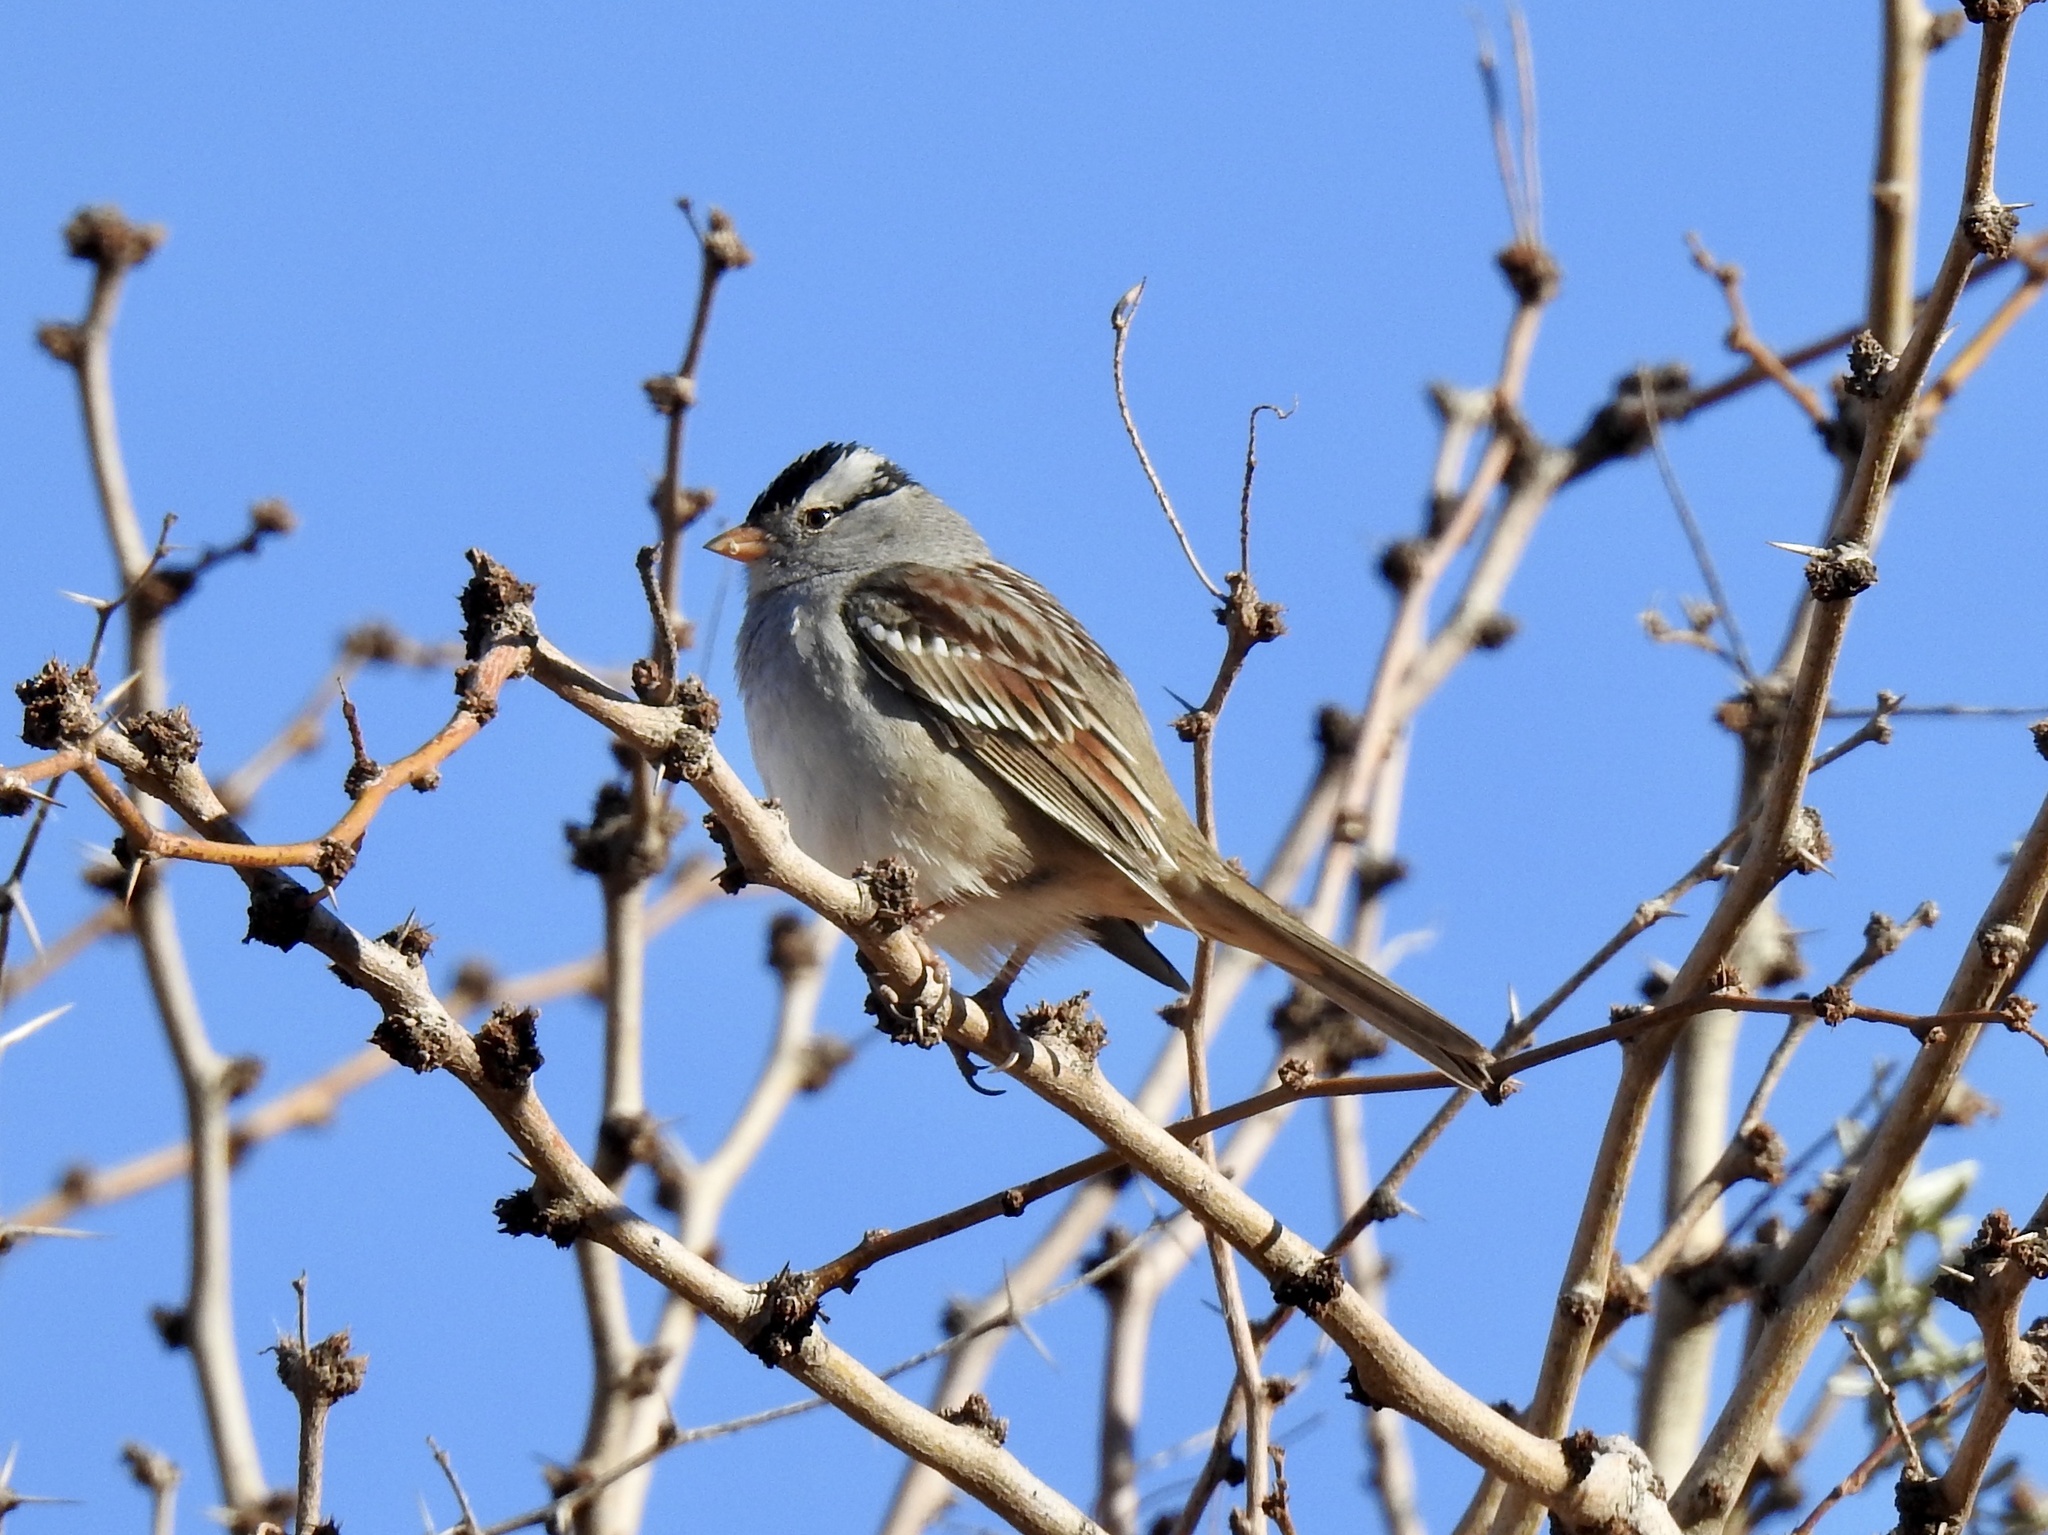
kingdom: Animalia
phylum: Chordata
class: Aves
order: Passeriformes
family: Passerellidae
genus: Zonotrichia
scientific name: Zonotrichia leucophrys
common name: White-crowned sparrow
